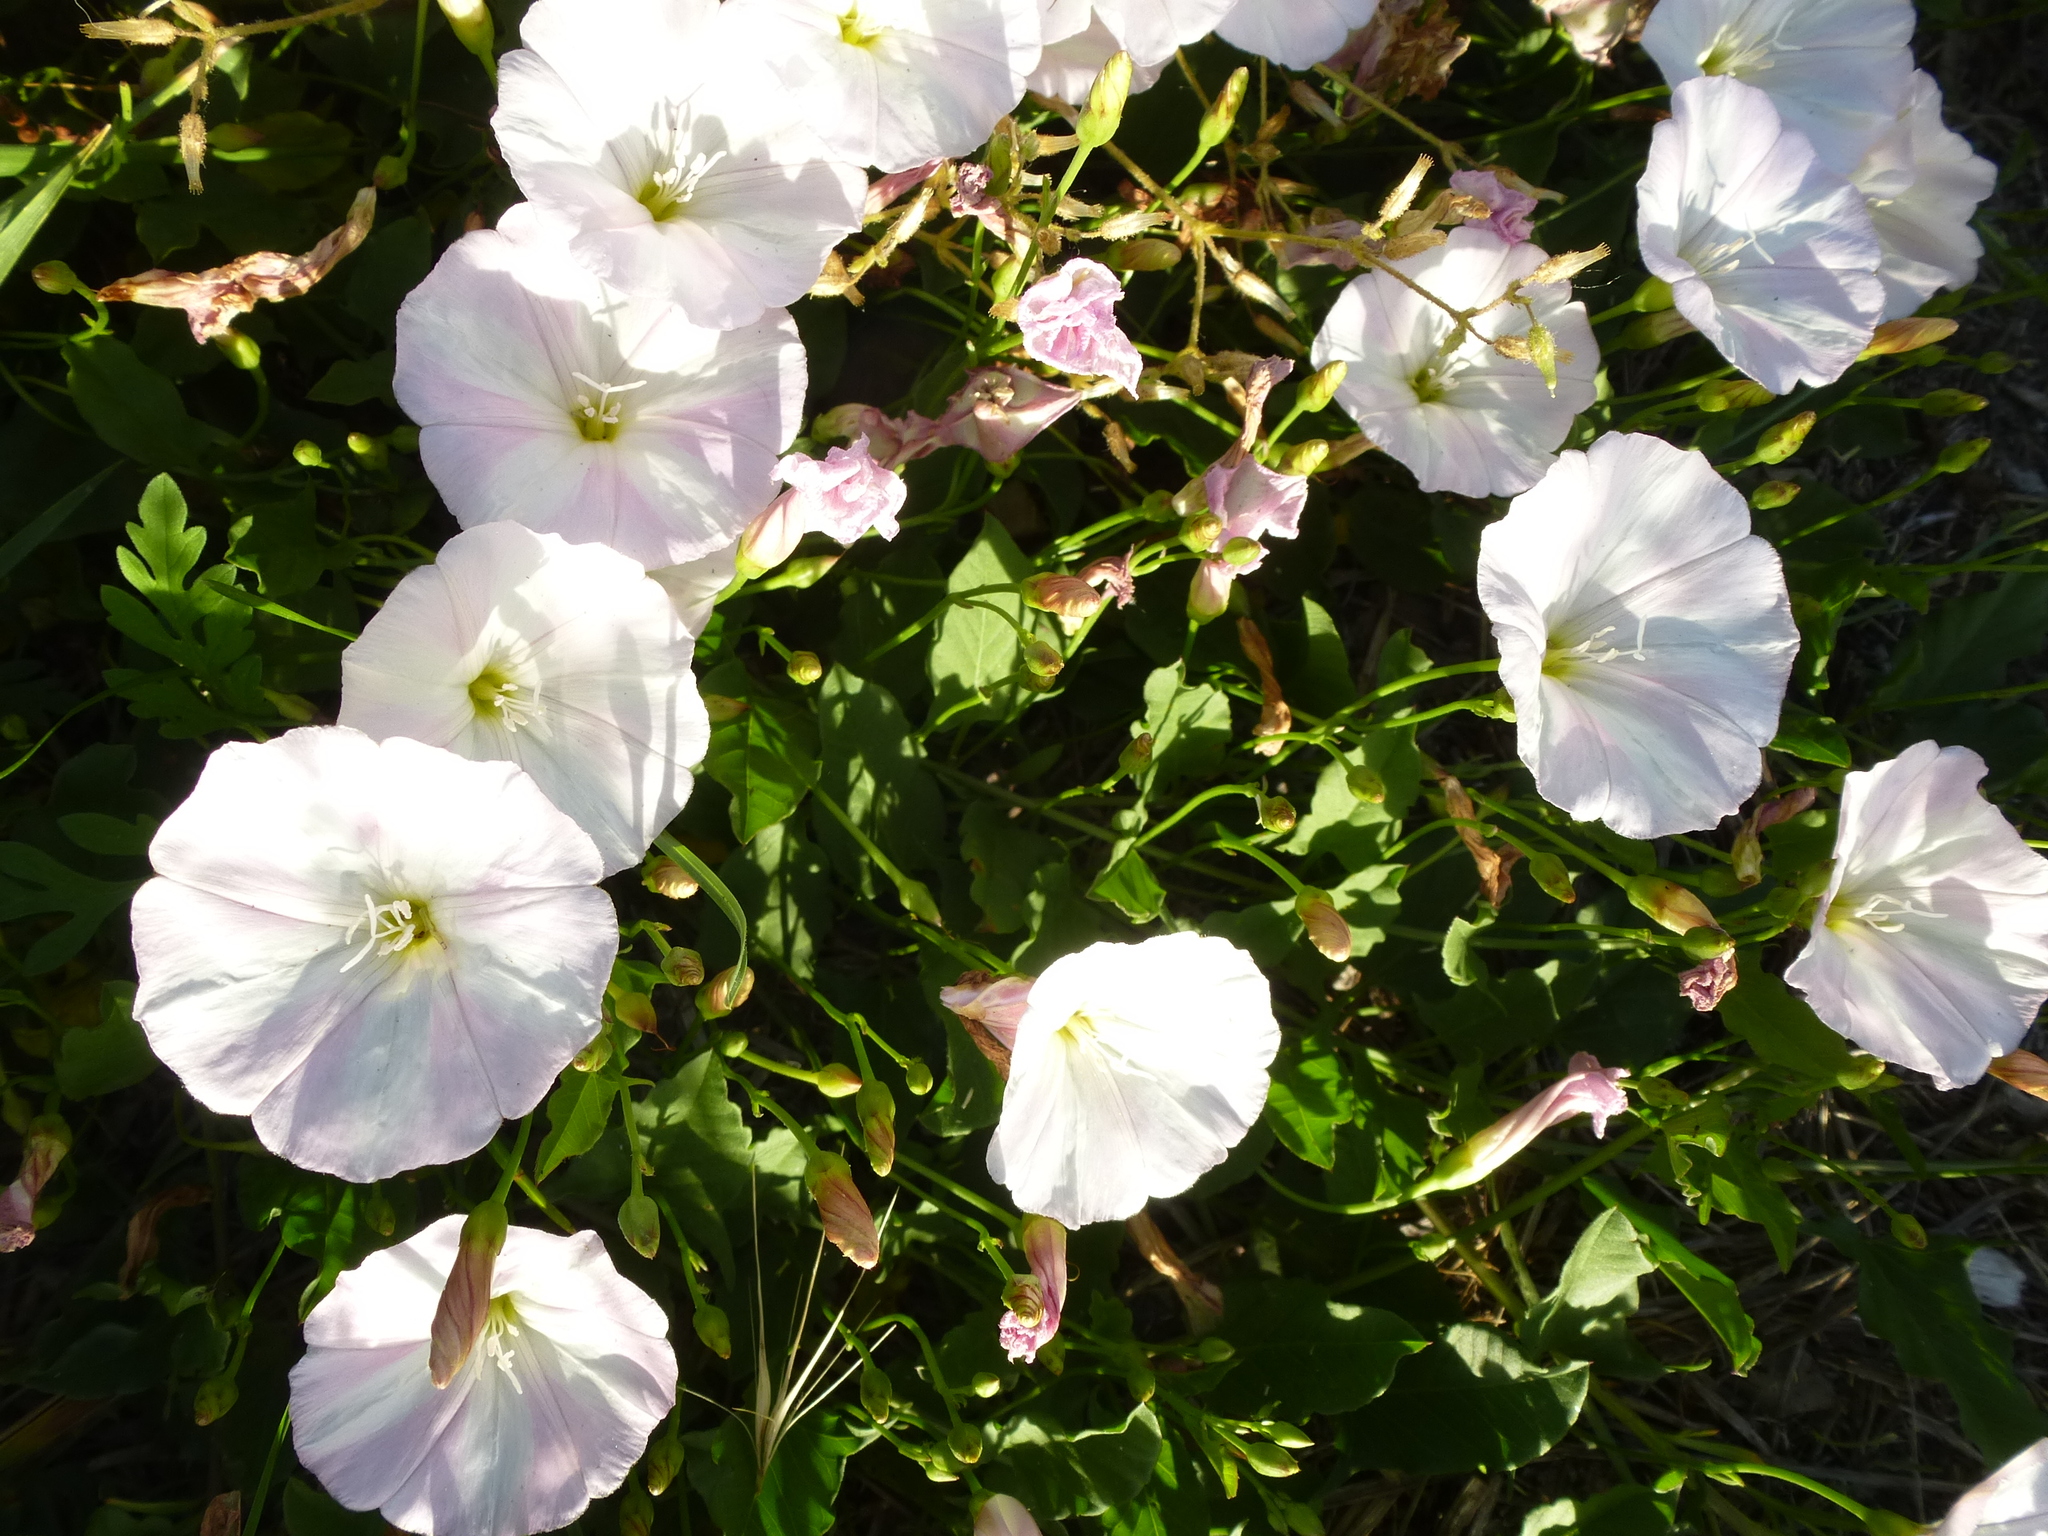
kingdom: Plantae
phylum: Tracheophyta
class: Magnoliopsida
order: Solanales
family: Convolvulaceae
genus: Convolvulus
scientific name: Convolvulus arvensis
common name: Field bindweed
